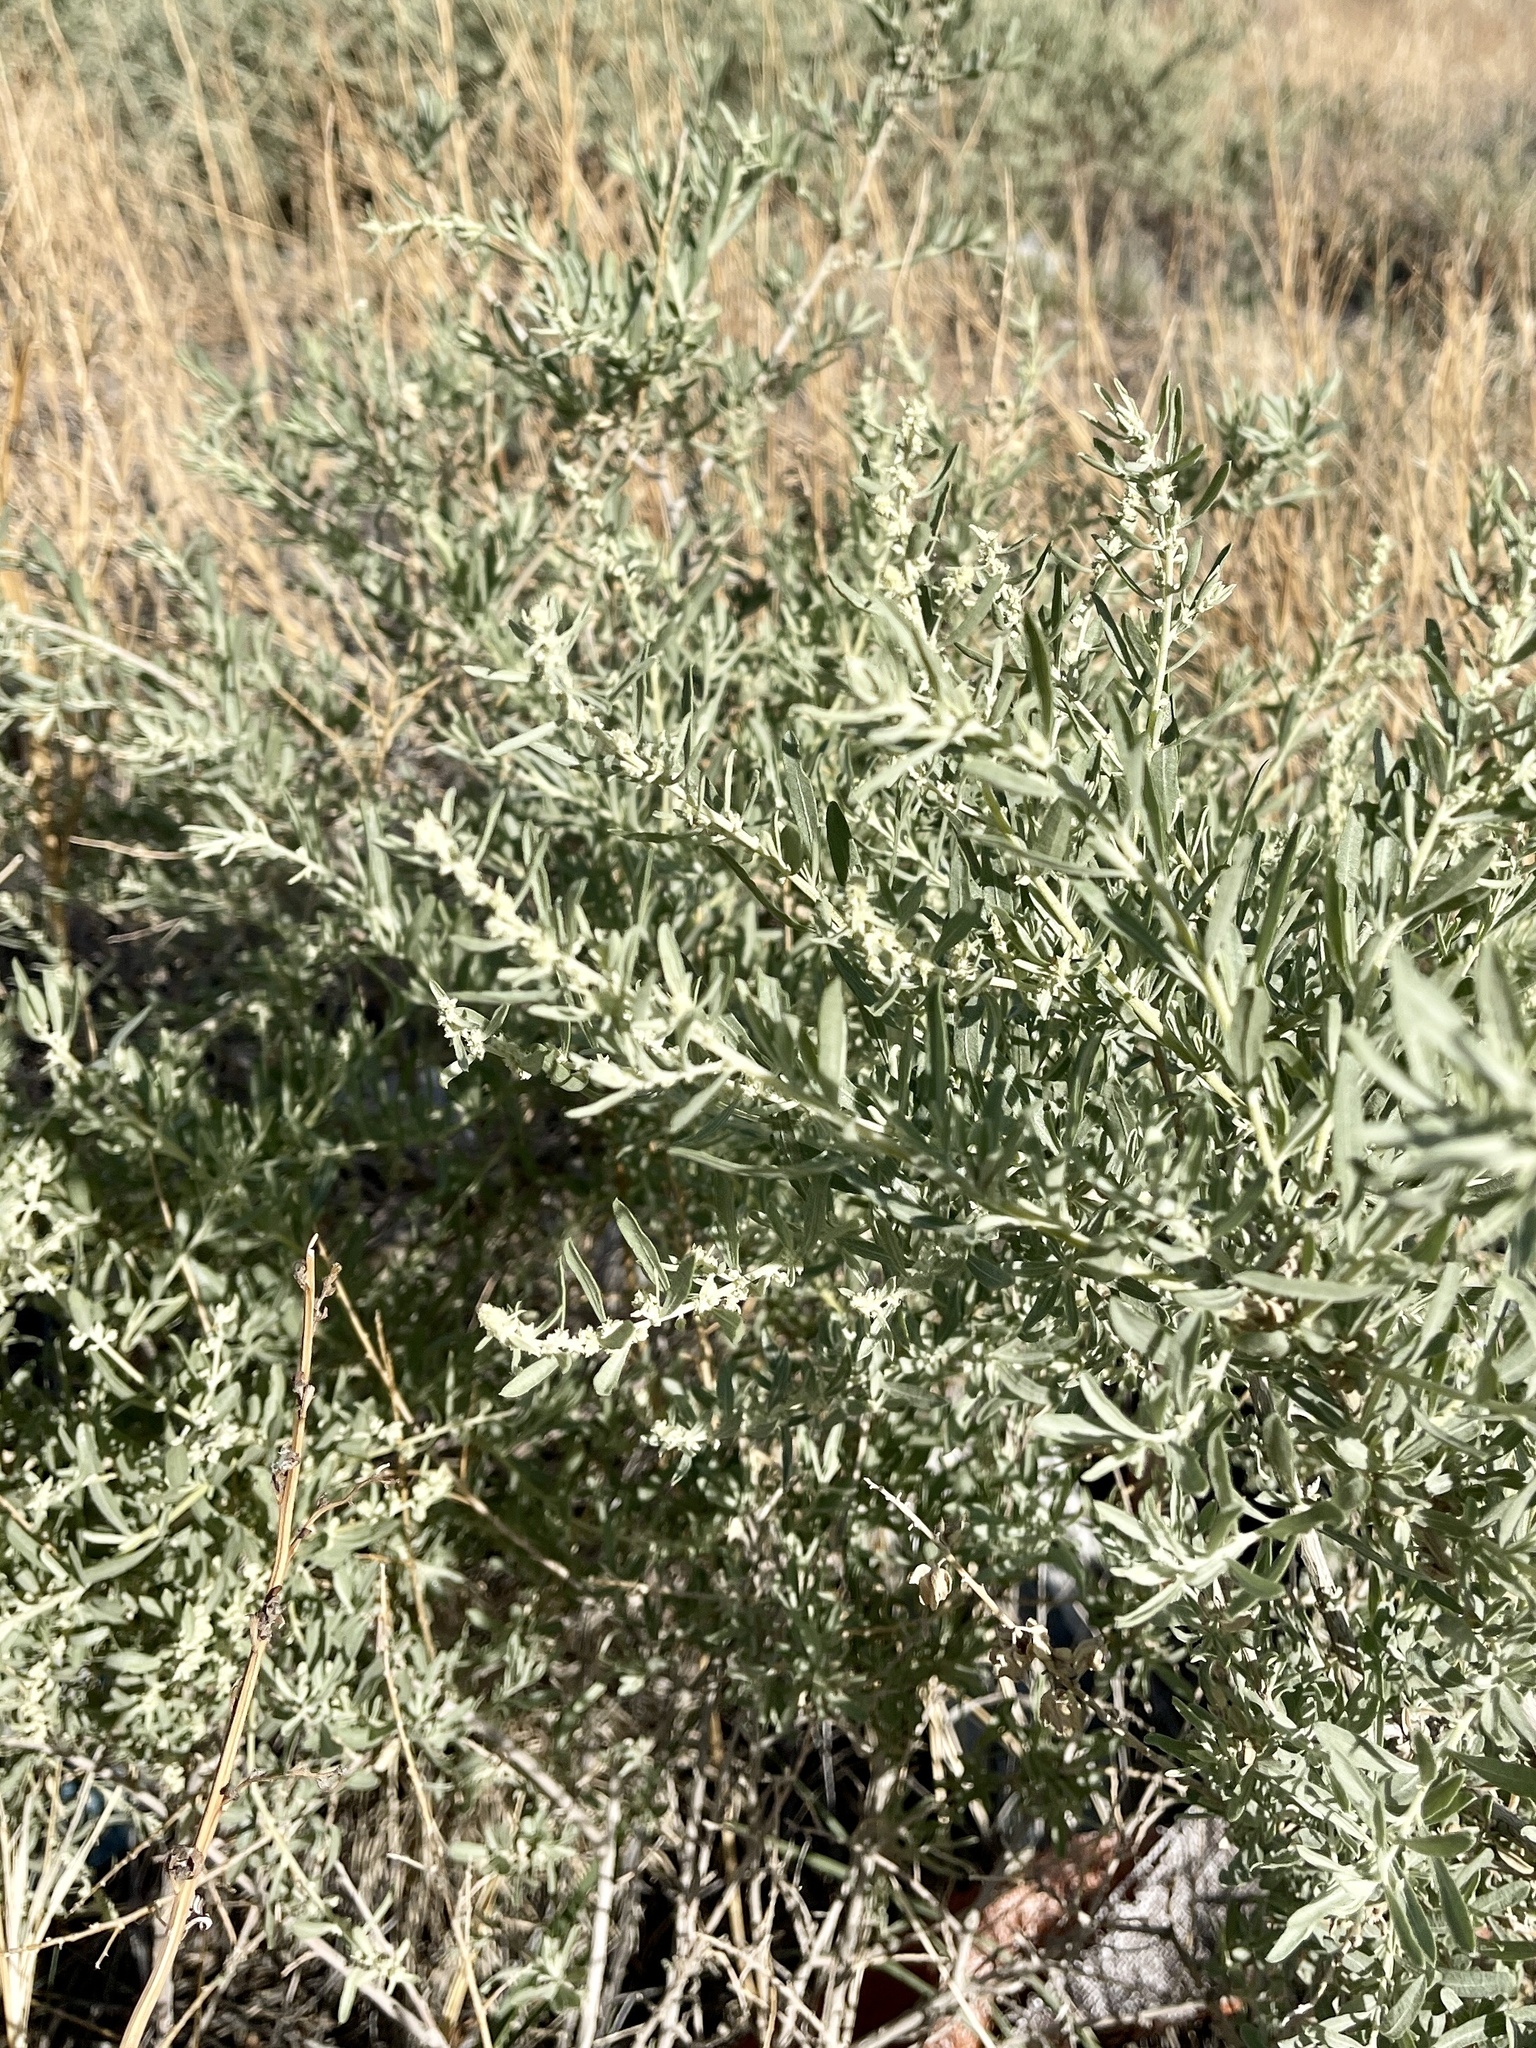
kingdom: Plantae
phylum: Tracheophyta
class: Magnoliopsida
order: Caryophyllales
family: Amaranthaceae
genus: Atriplex
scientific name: Atriplex canescens
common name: Four-wing saltbush
